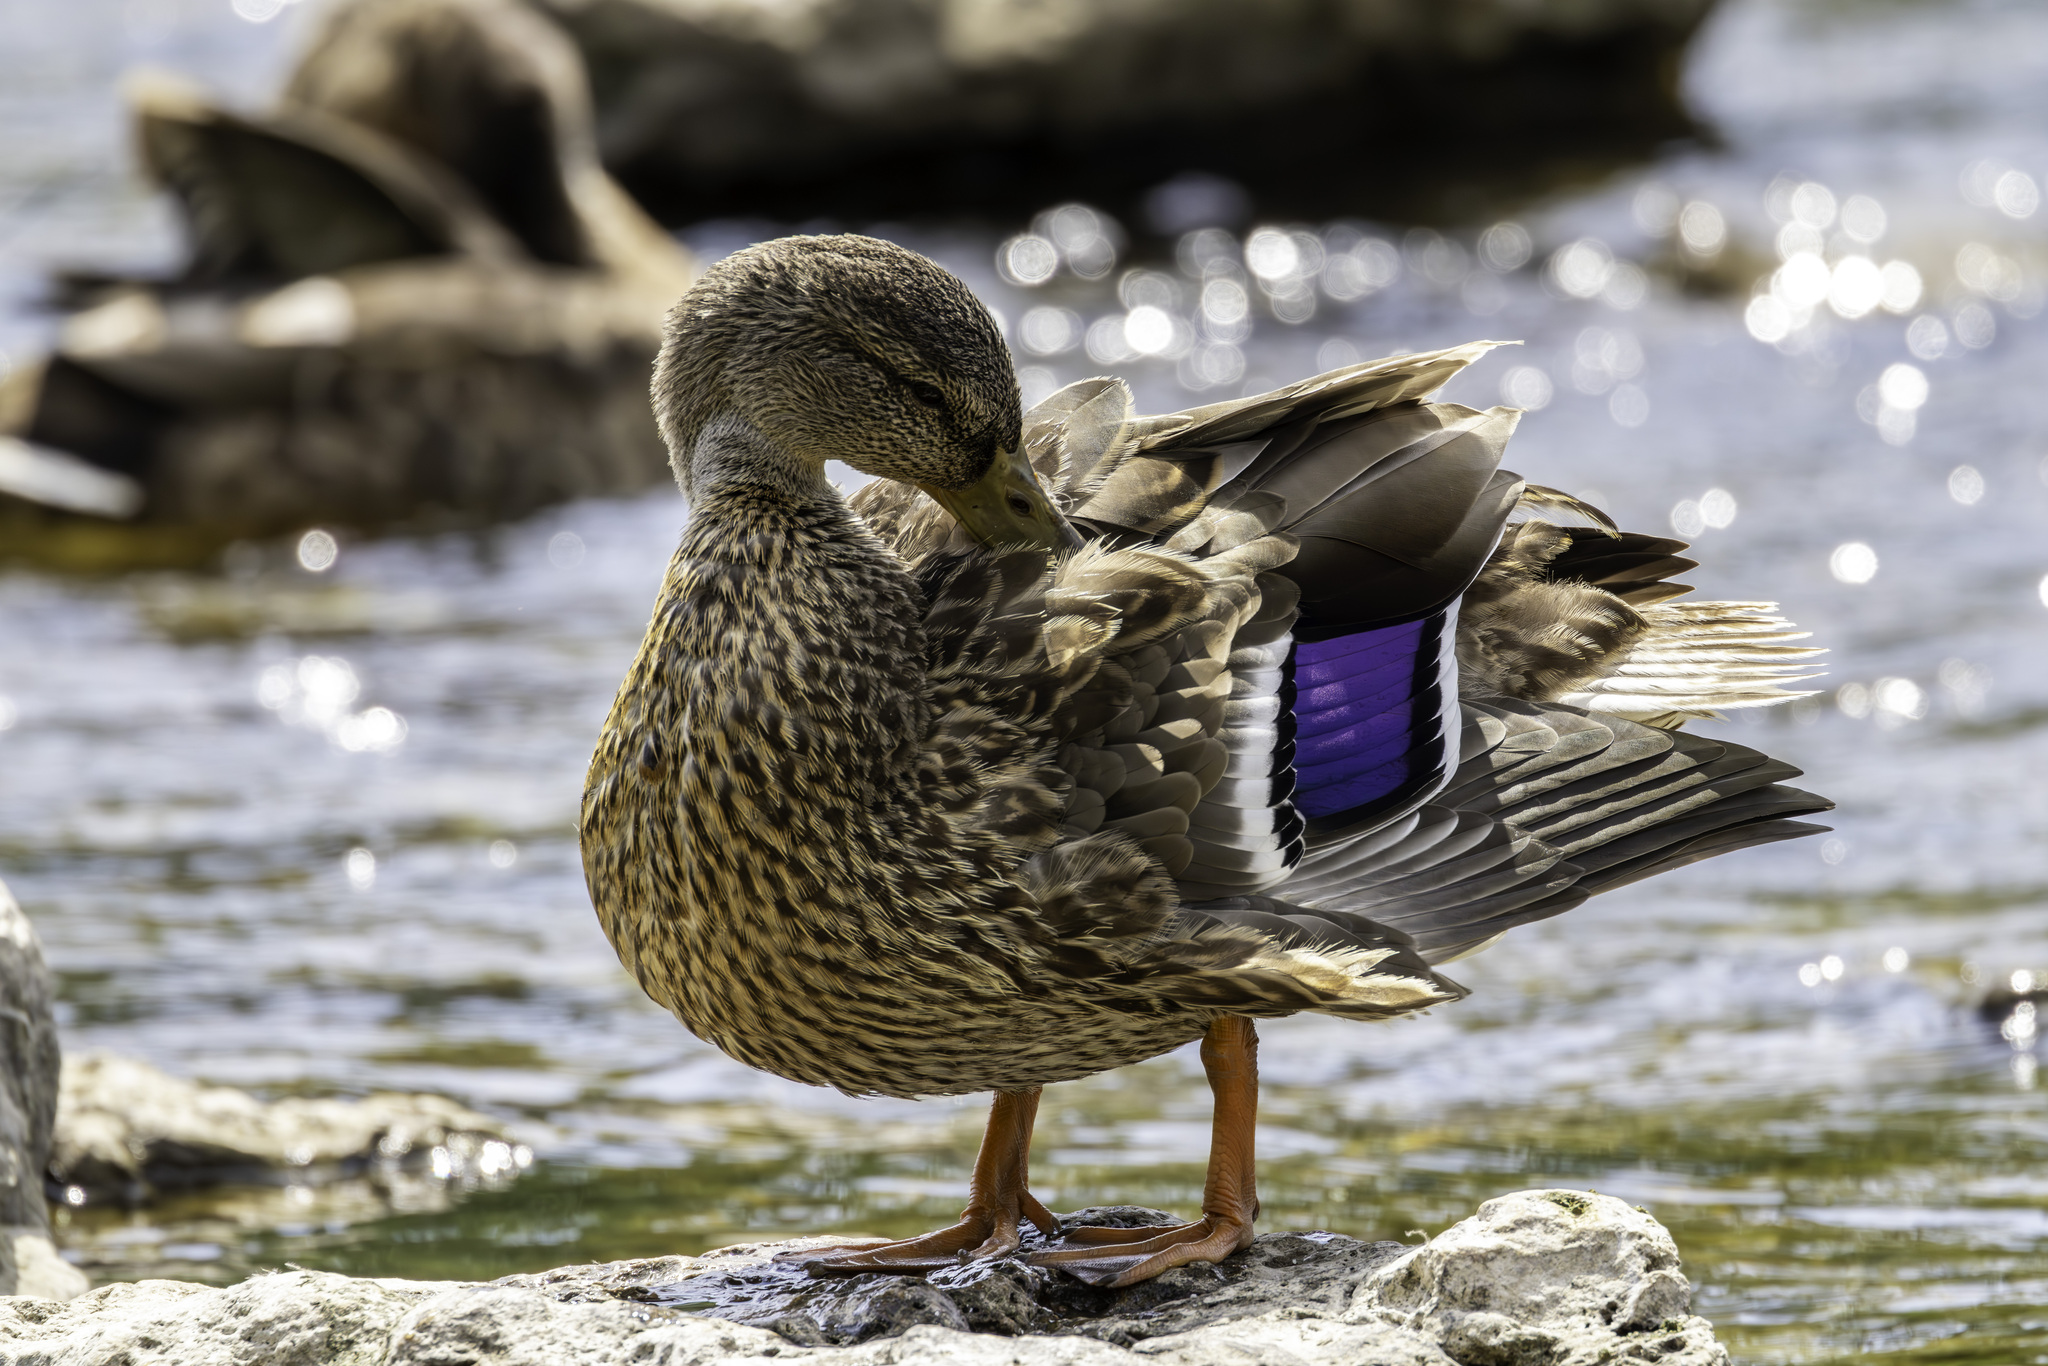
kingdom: Animalia
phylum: Chordata
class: Aves
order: Anseriformes
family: Anatidae
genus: Anas
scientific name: Anas platyrhynchos
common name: Mallard
